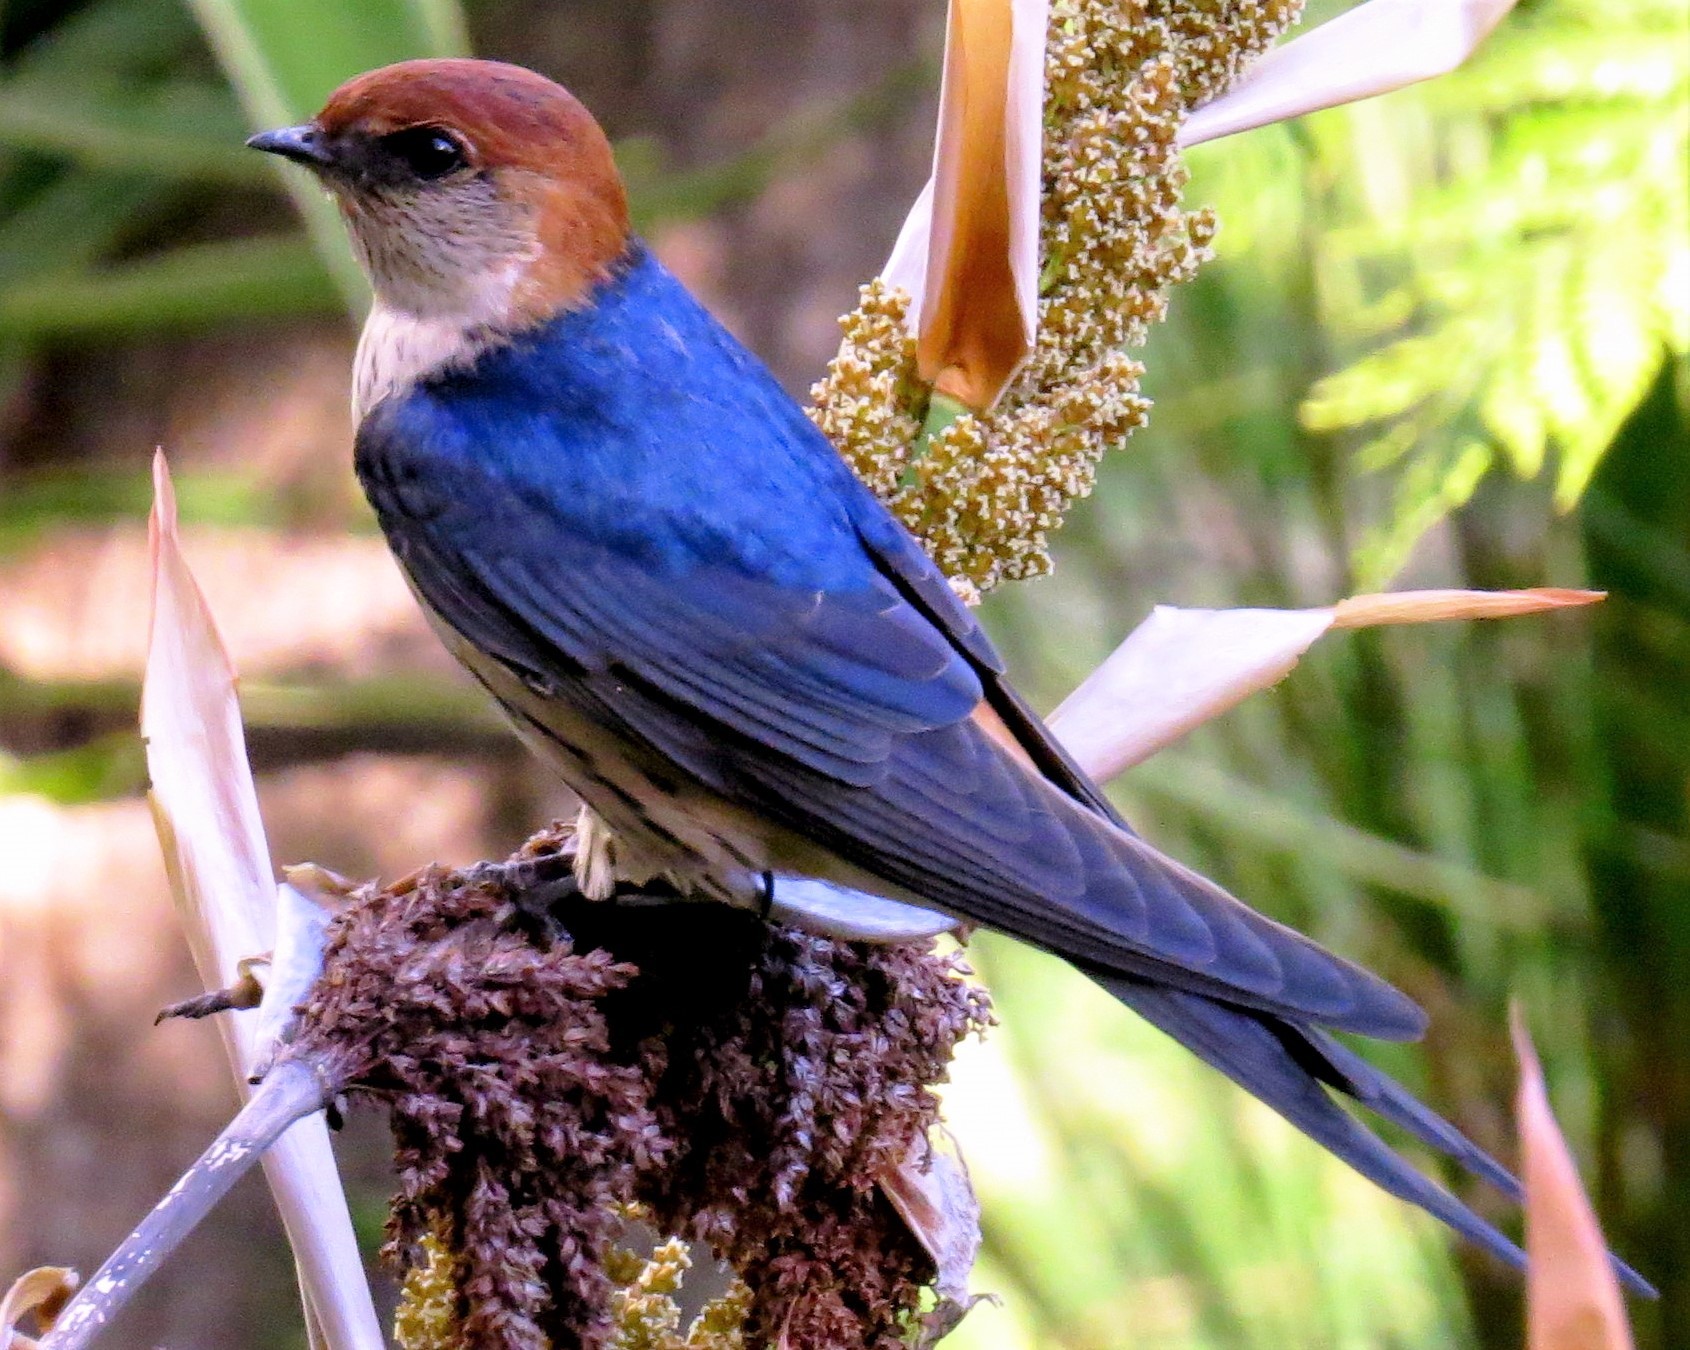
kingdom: Animalia
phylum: Chordata
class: Aves
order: Passeriformes
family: Hirundinidae
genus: Cecropis
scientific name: Cecropis cucullata
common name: Greater striped-swallow
